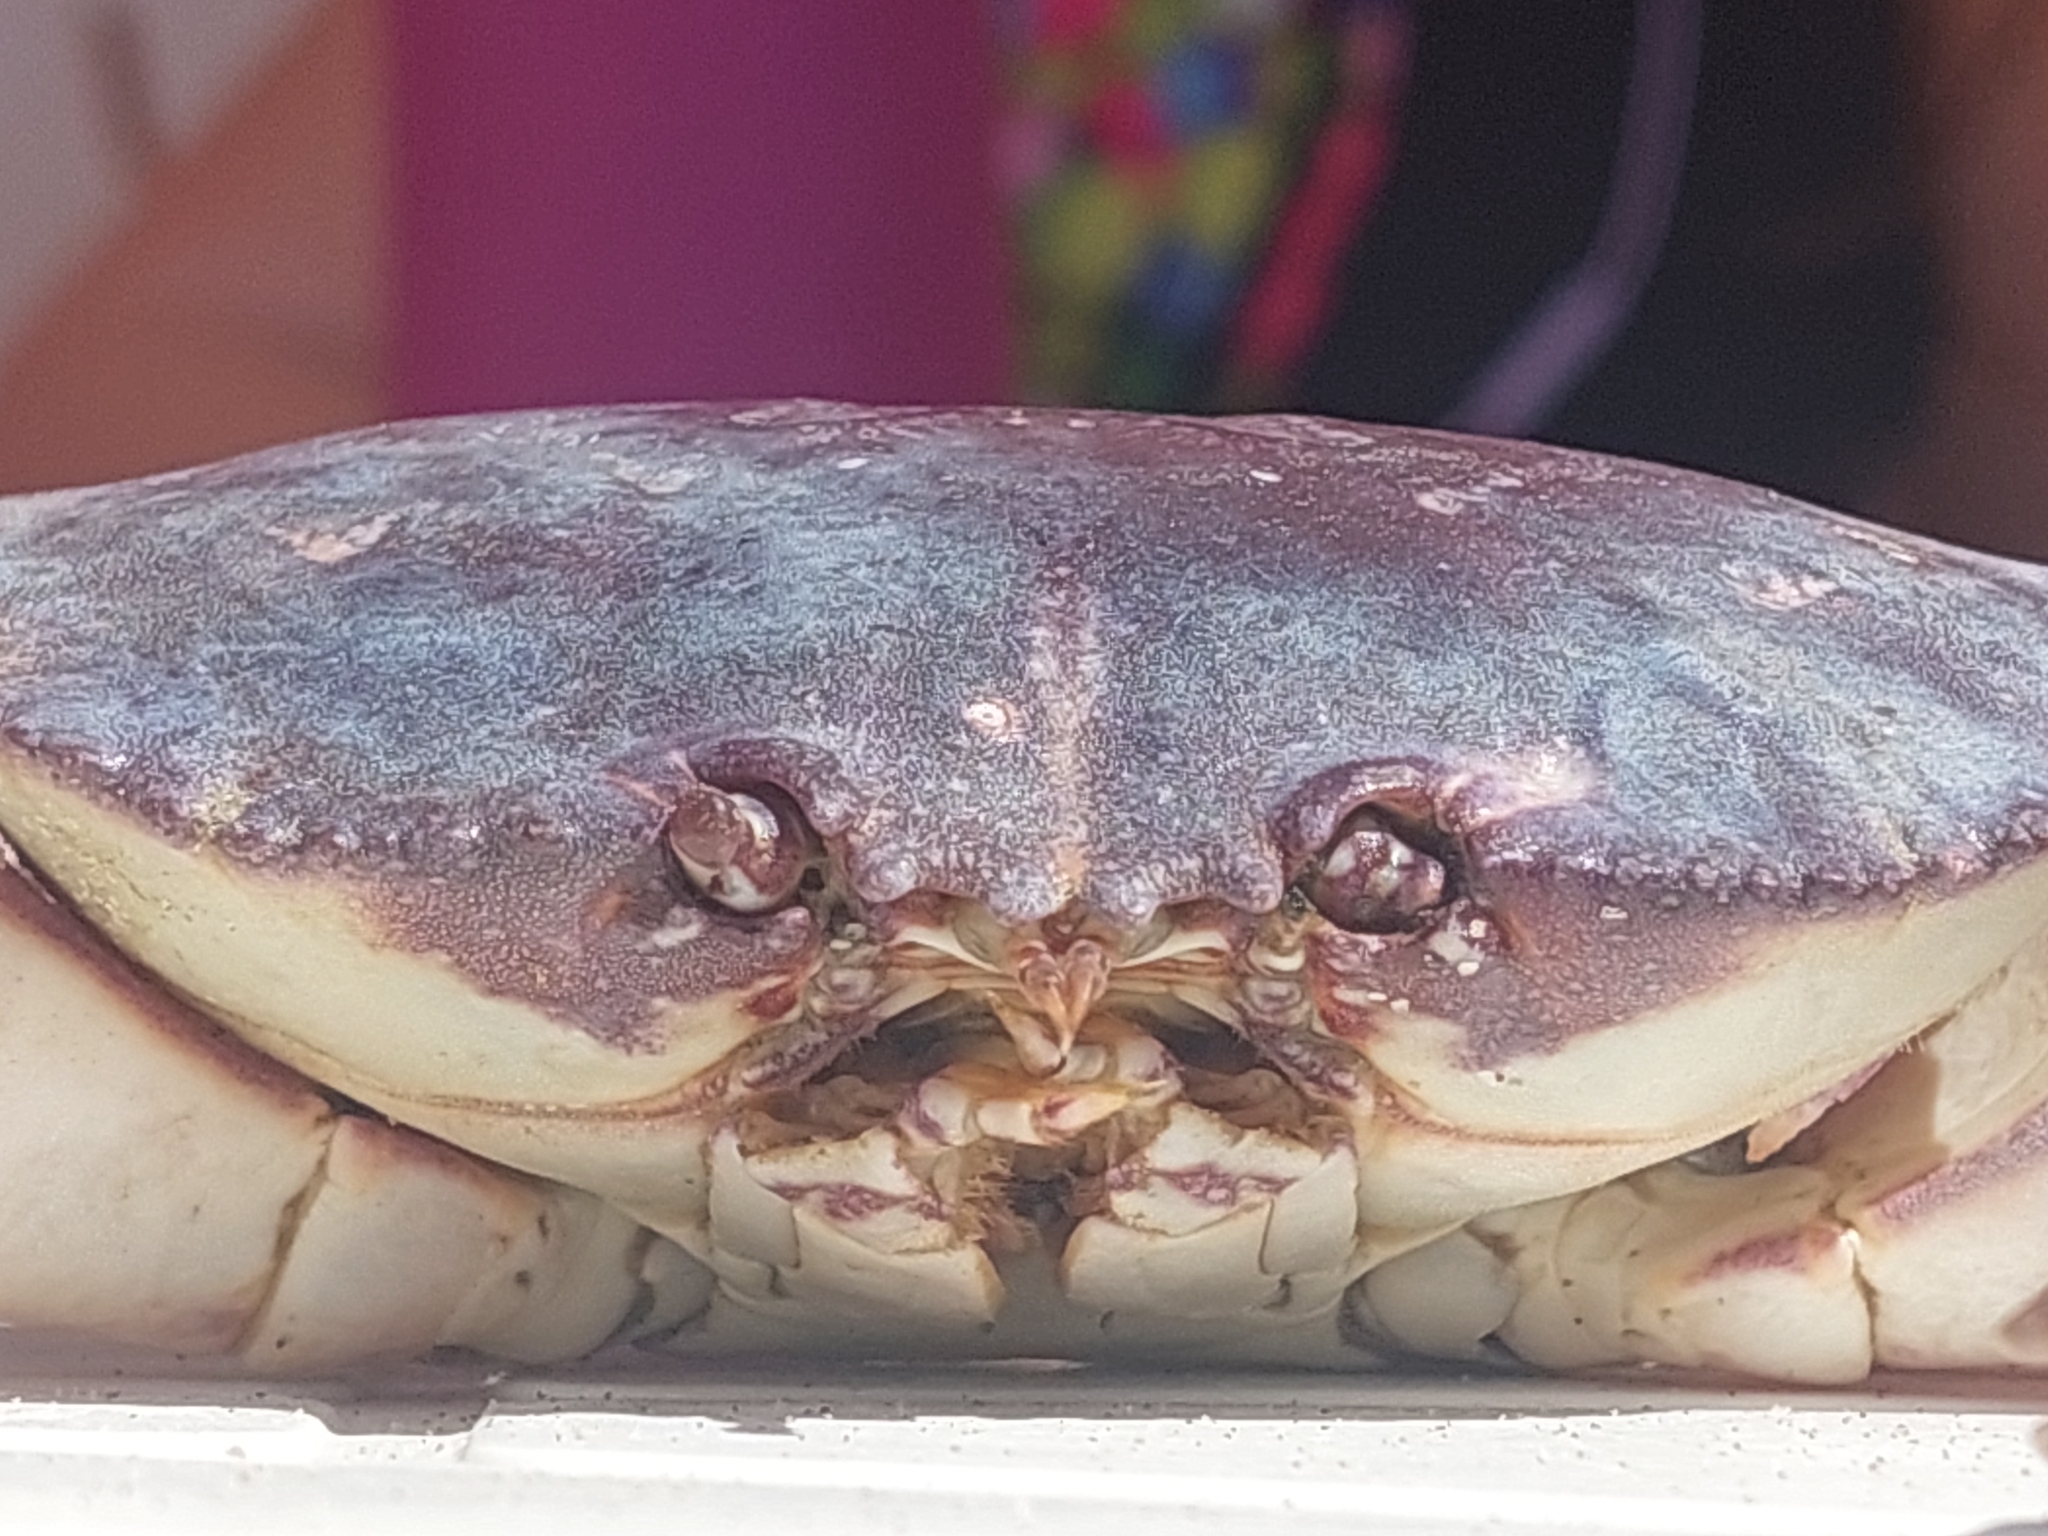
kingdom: Animalia
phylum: Arthropoda
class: Malacostraca
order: Decapoda
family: Platyxanthidae
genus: Danielethus
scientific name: Danielethus crenulatus
